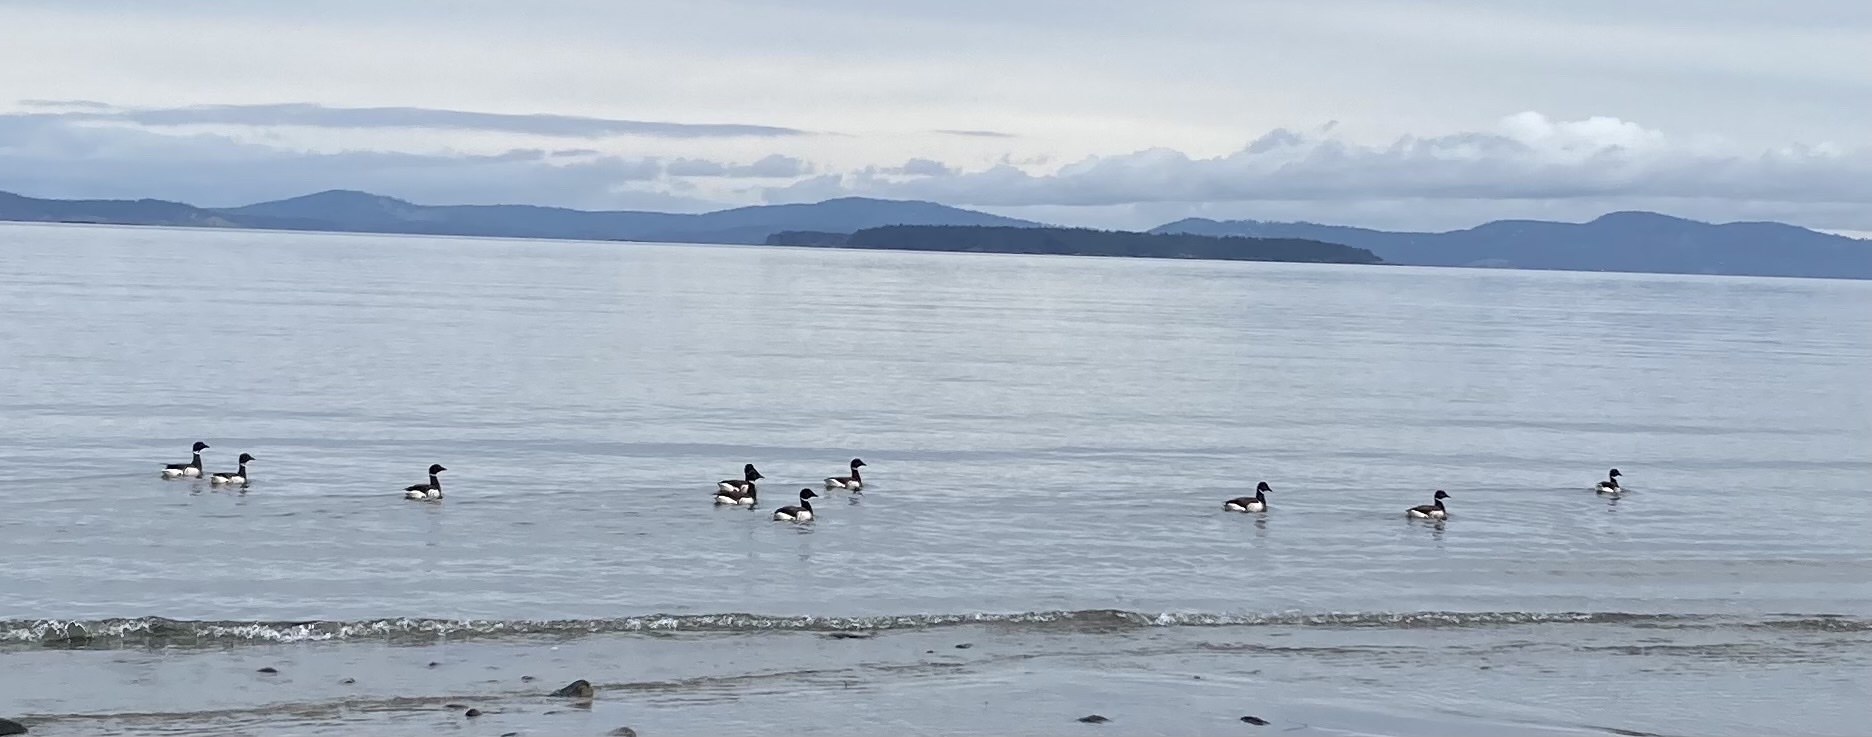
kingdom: Animalia
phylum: Chordata
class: Aves
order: Anseriformes
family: Anatidae
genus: Branta
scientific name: Branta bernicla
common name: Brant goose
